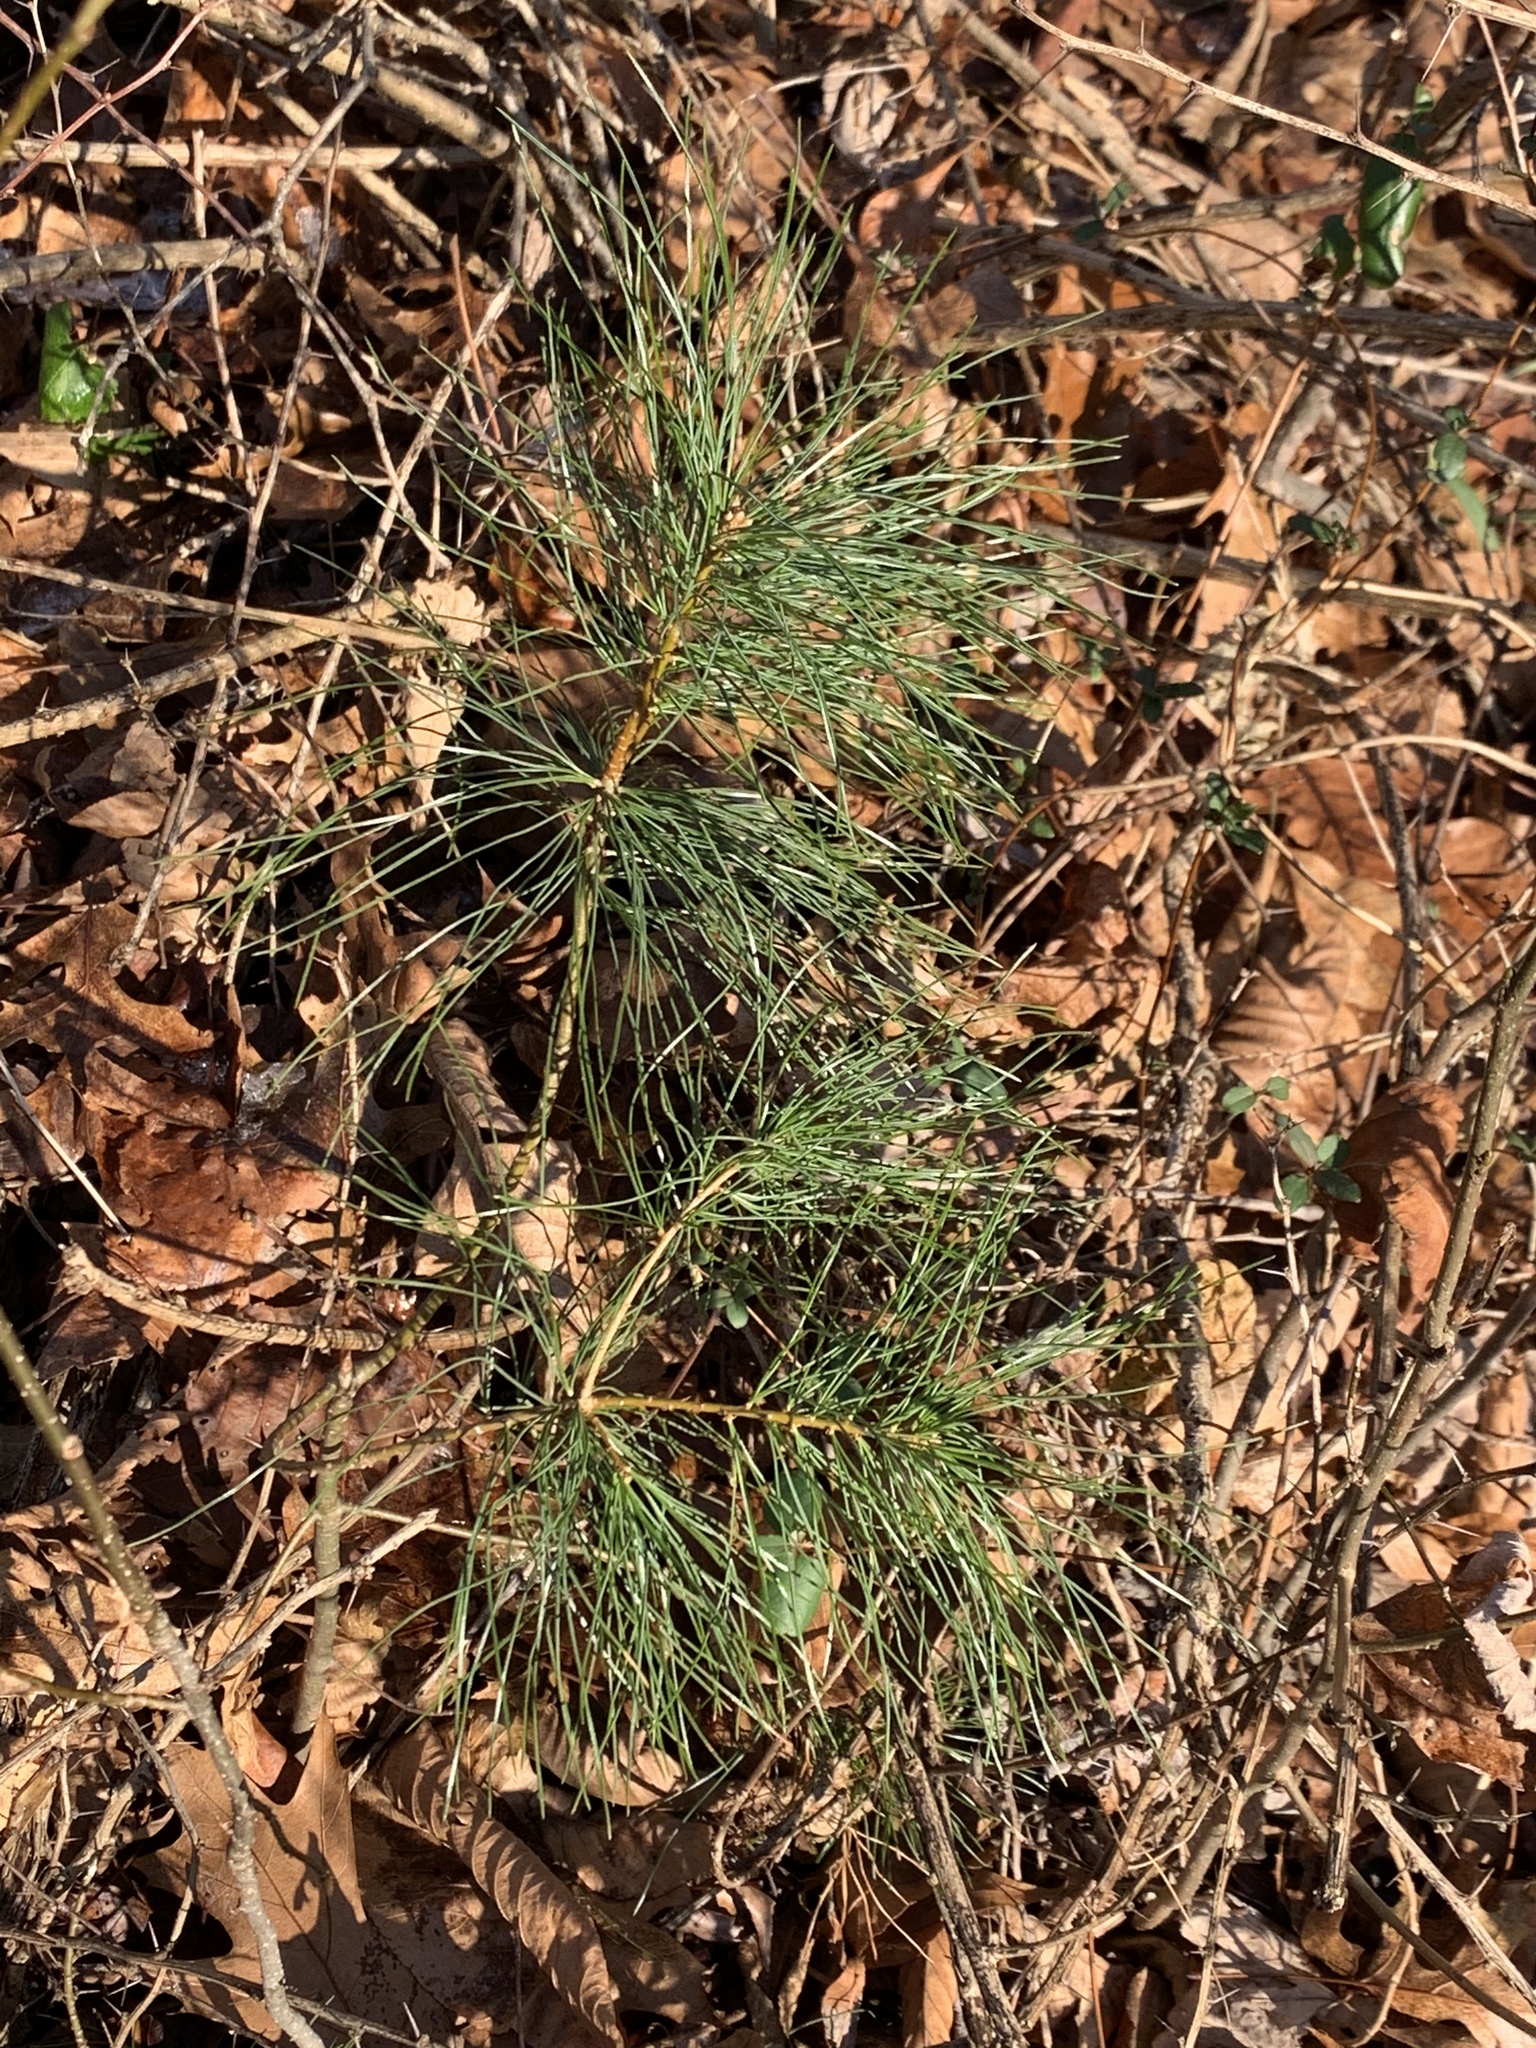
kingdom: Plantae
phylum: Tracheophyta
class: Pinopsida
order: Pinales
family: Pinaceae
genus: Pinus
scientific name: Pinus strobus
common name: Weymouth pine
